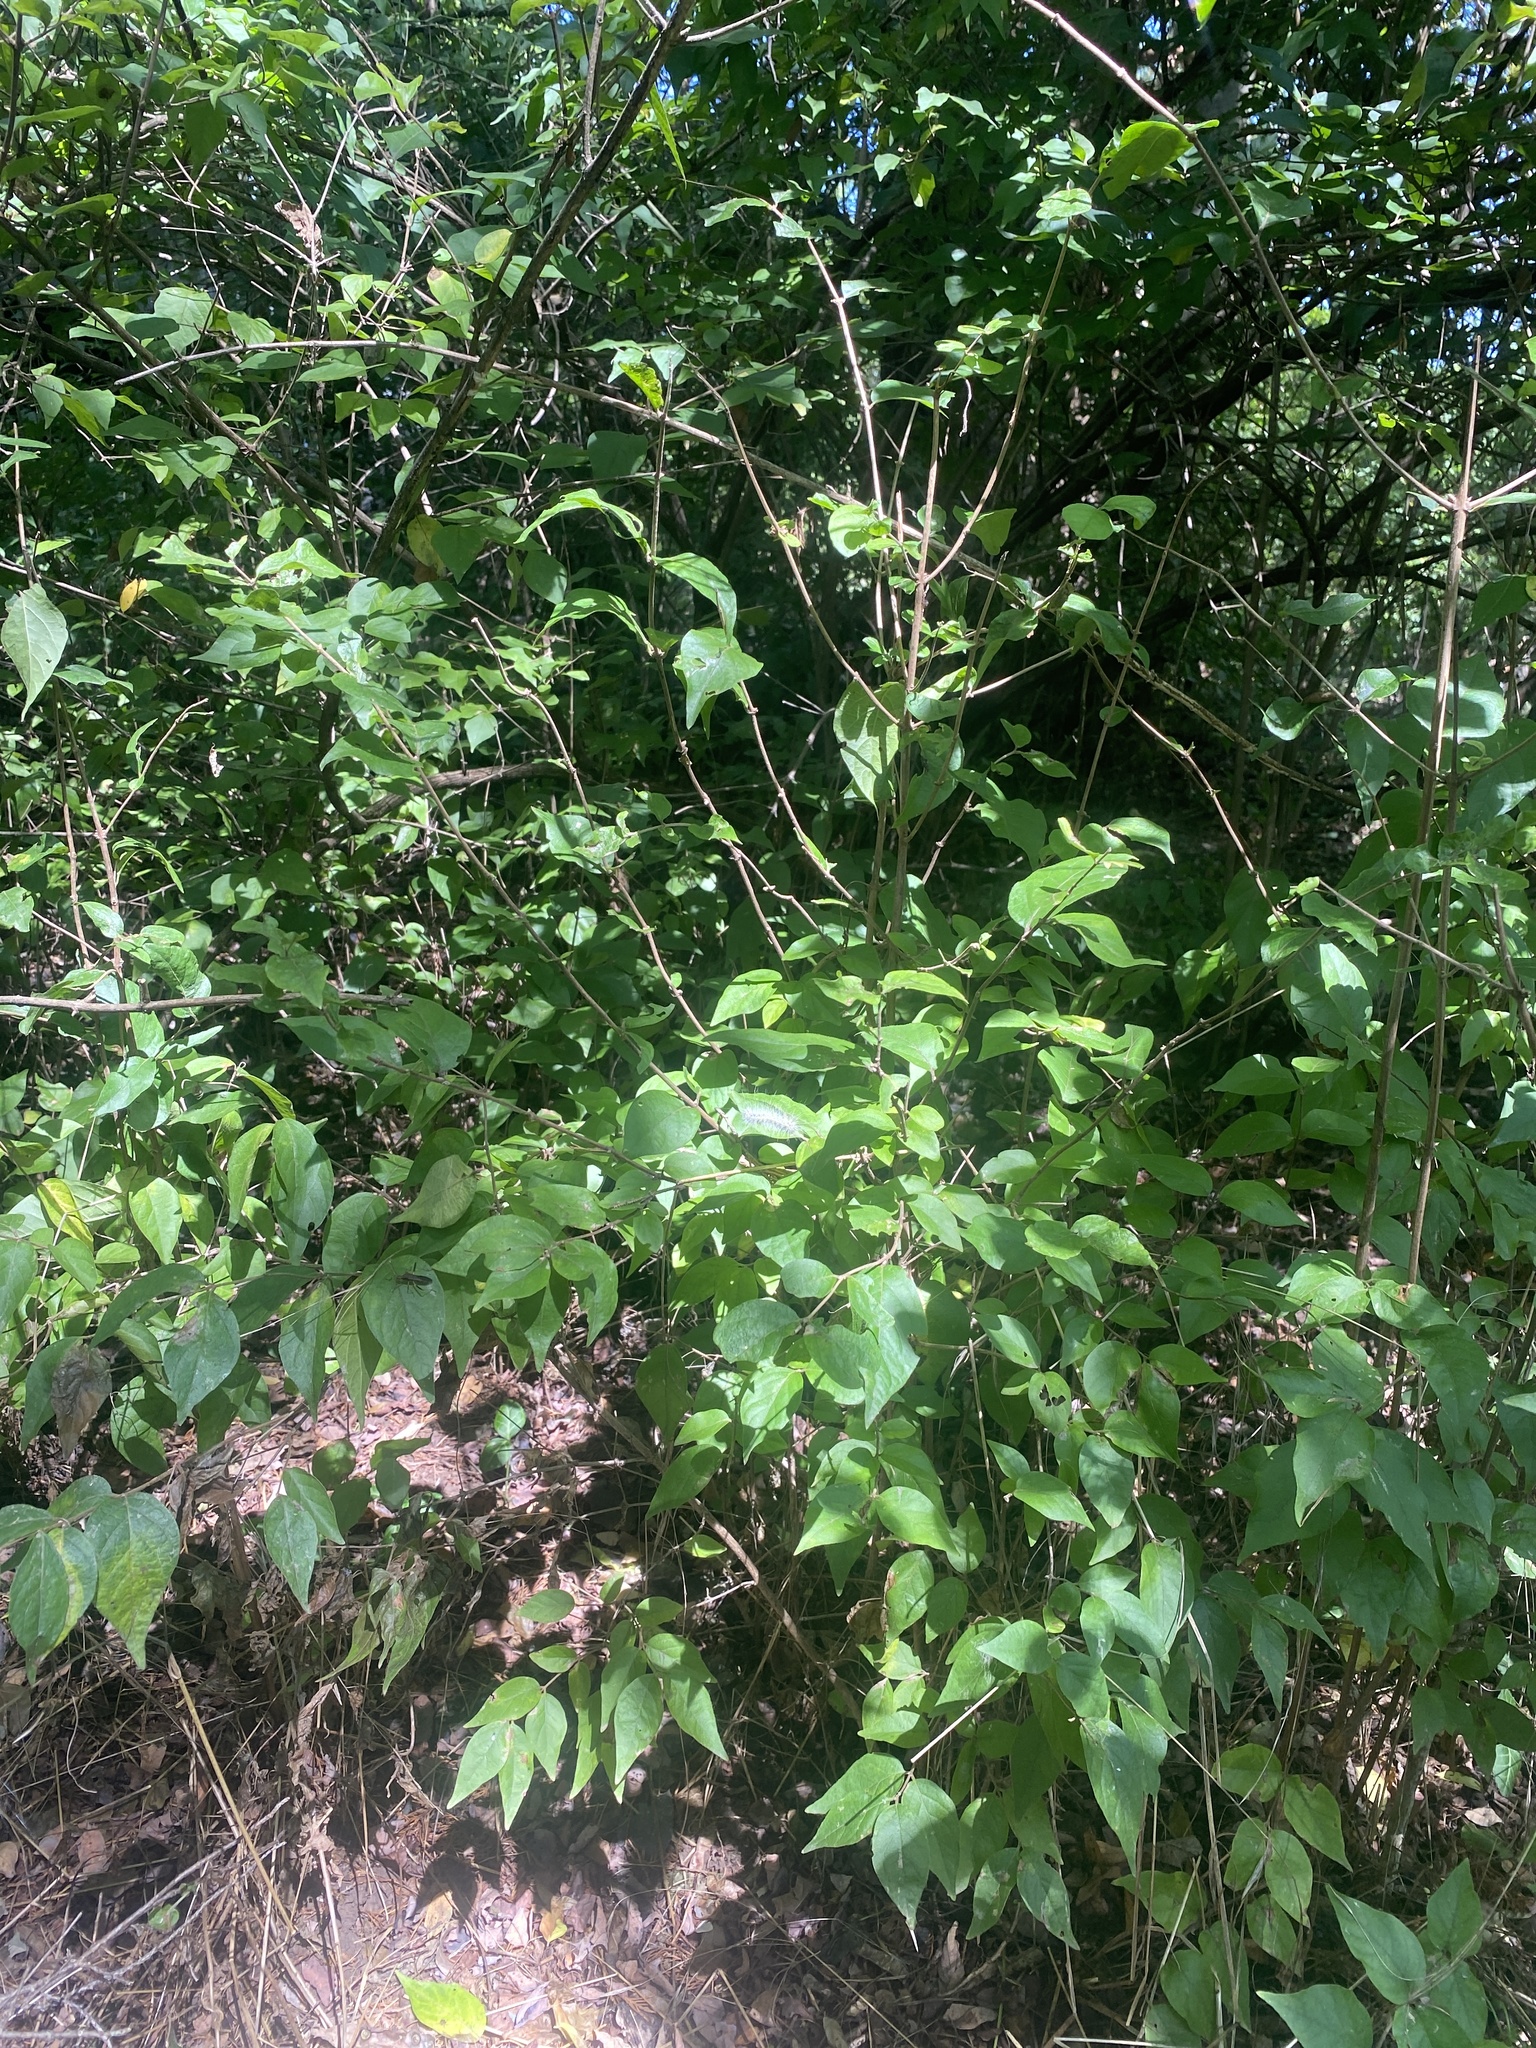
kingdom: Plantae
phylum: Tracheophyta
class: Magnoliopsida
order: Dipsacales
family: Caprifoliaceae
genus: Symphoricarpos
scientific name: Symphoricarpos orbiculatus
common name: Coralberry
